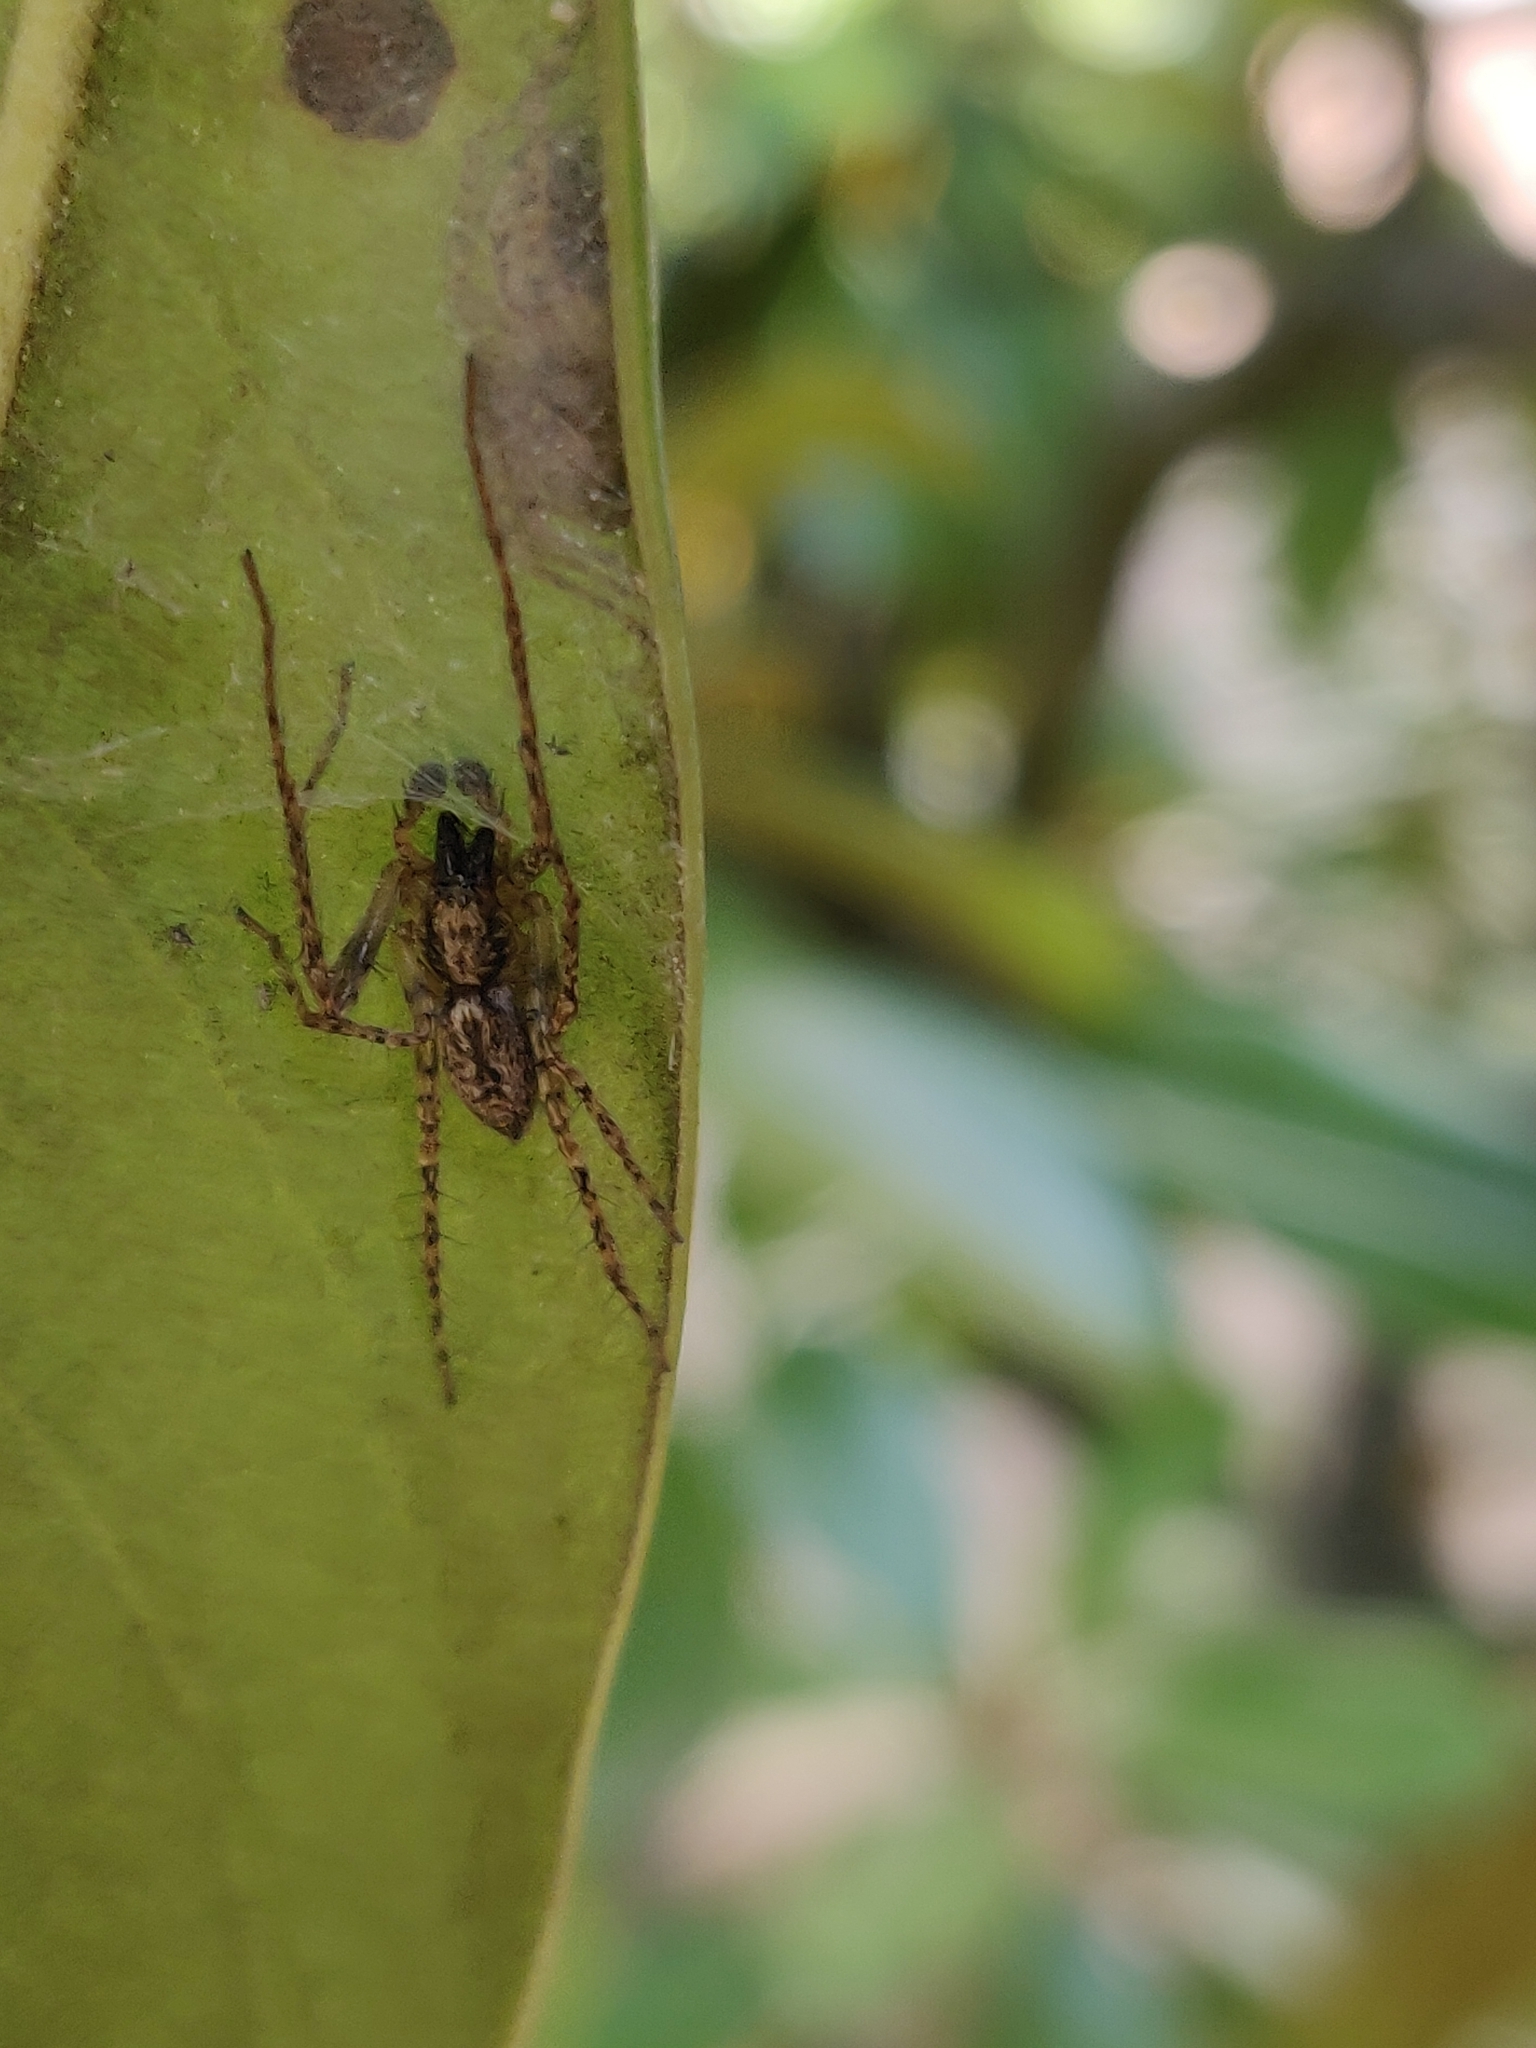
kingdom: Animalia
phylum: Arthropoda
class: Arachnida
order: Araneae
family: Anyphaenidae
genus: Anyphaena
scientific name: Anyphaena accentuata
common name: Buzzing spider
